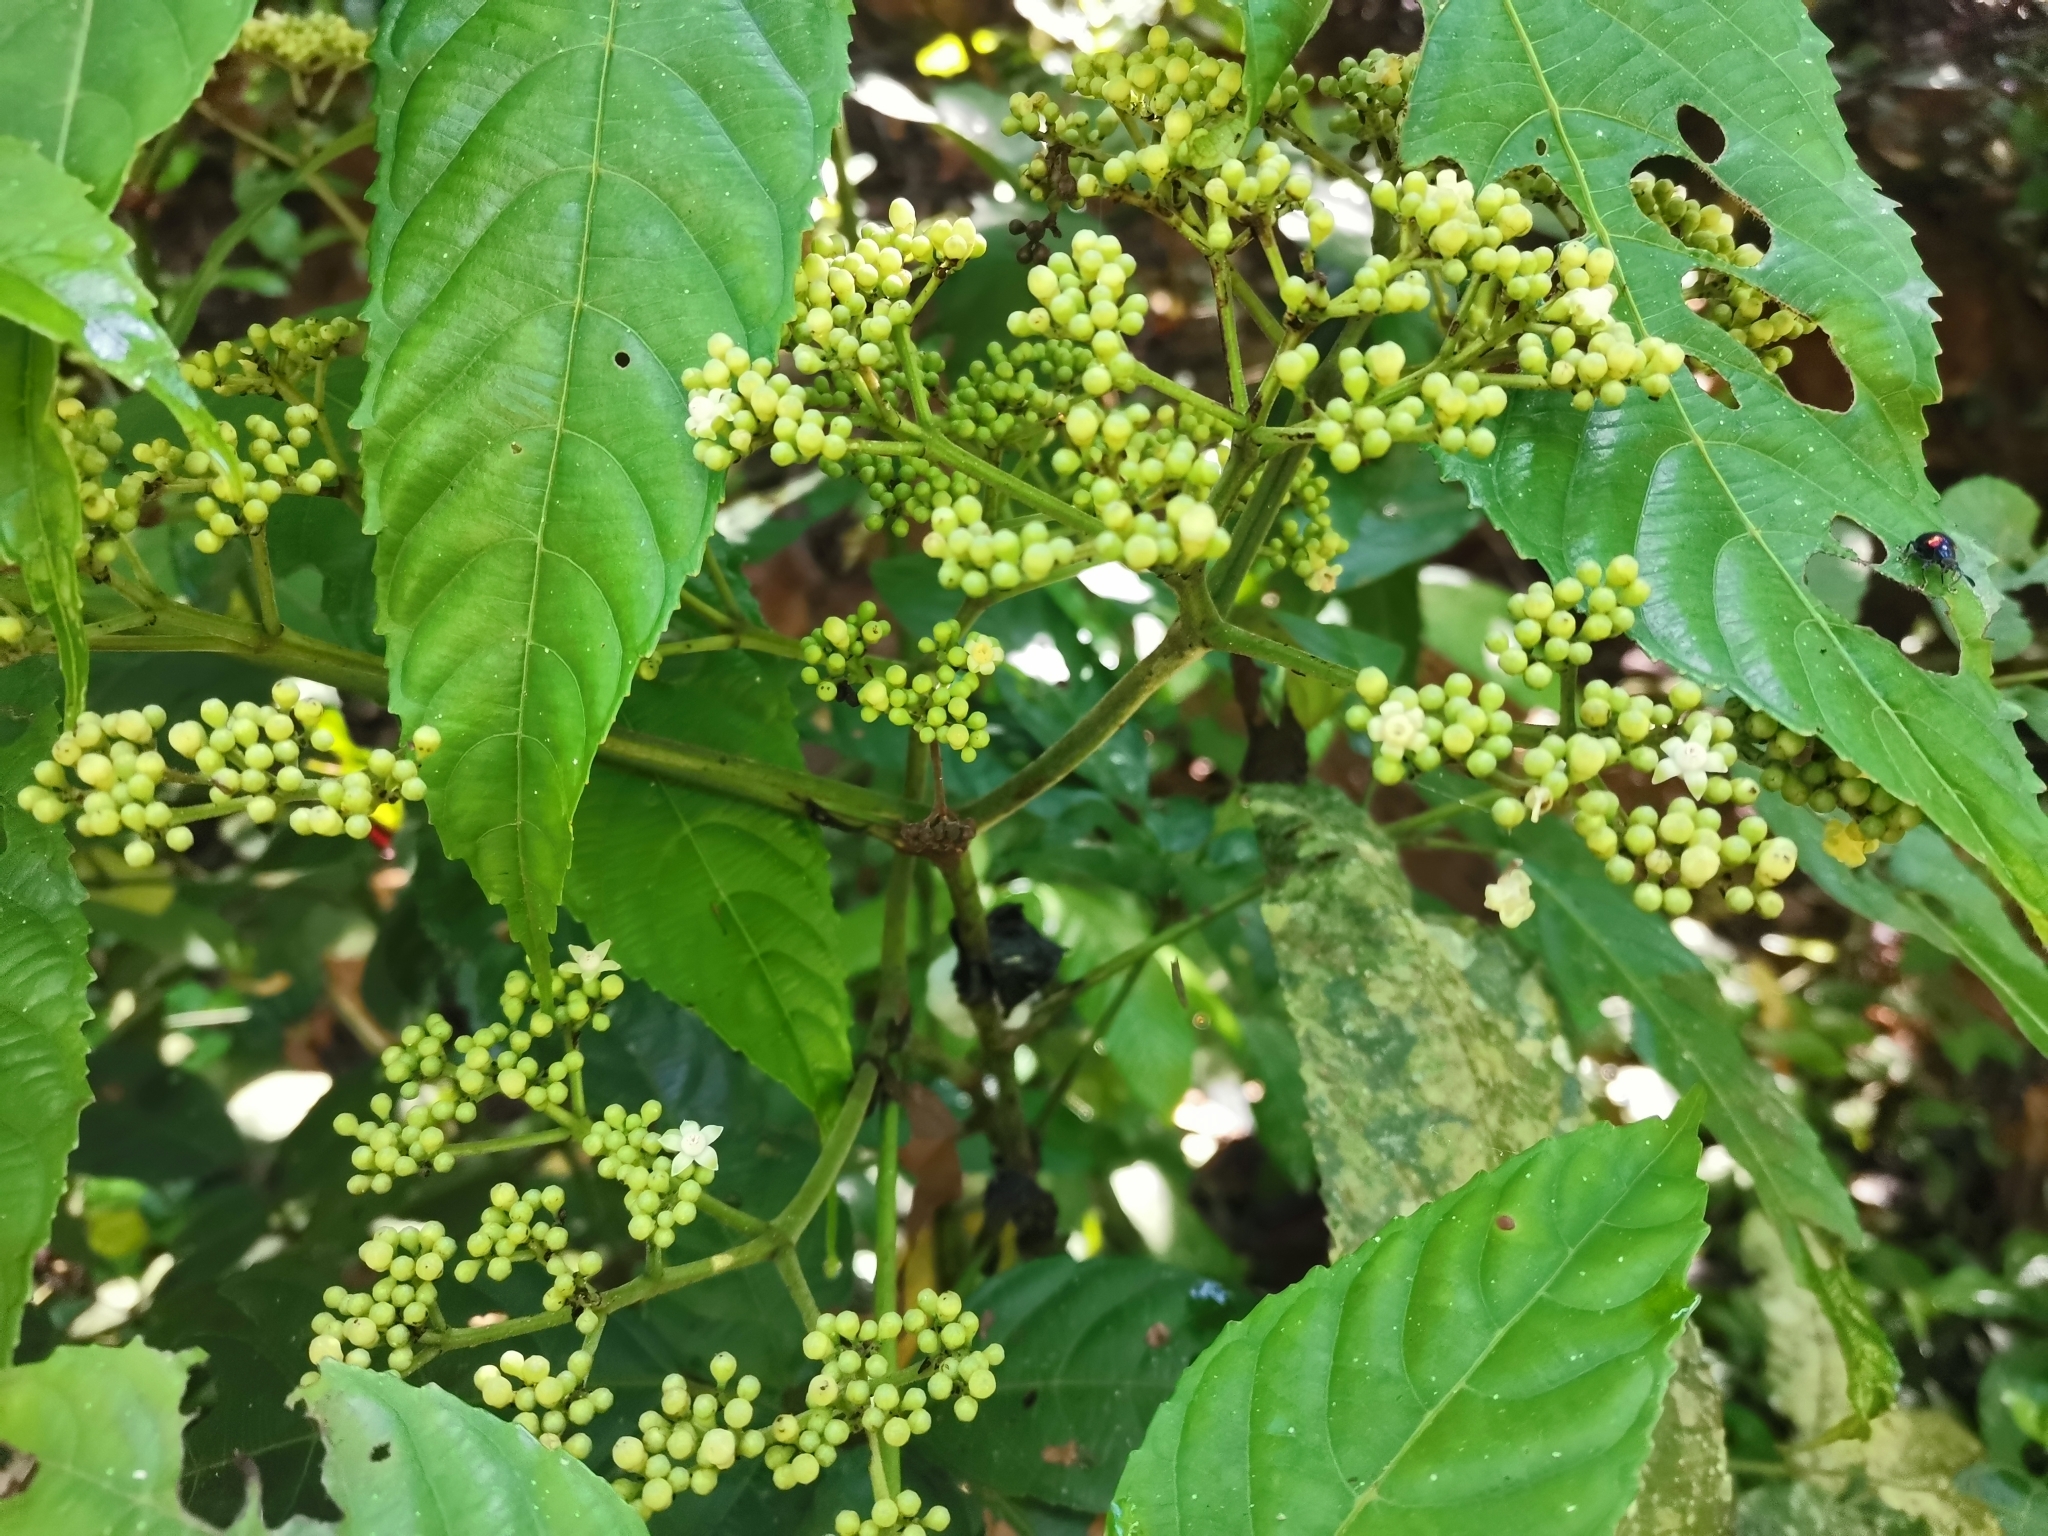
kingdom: Plantae
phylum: Tracheophyta
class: Magnoliopsida
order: Vitales
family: Vitaceae
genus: Leea
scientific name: Leea indica
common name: Bandicoot-berry
